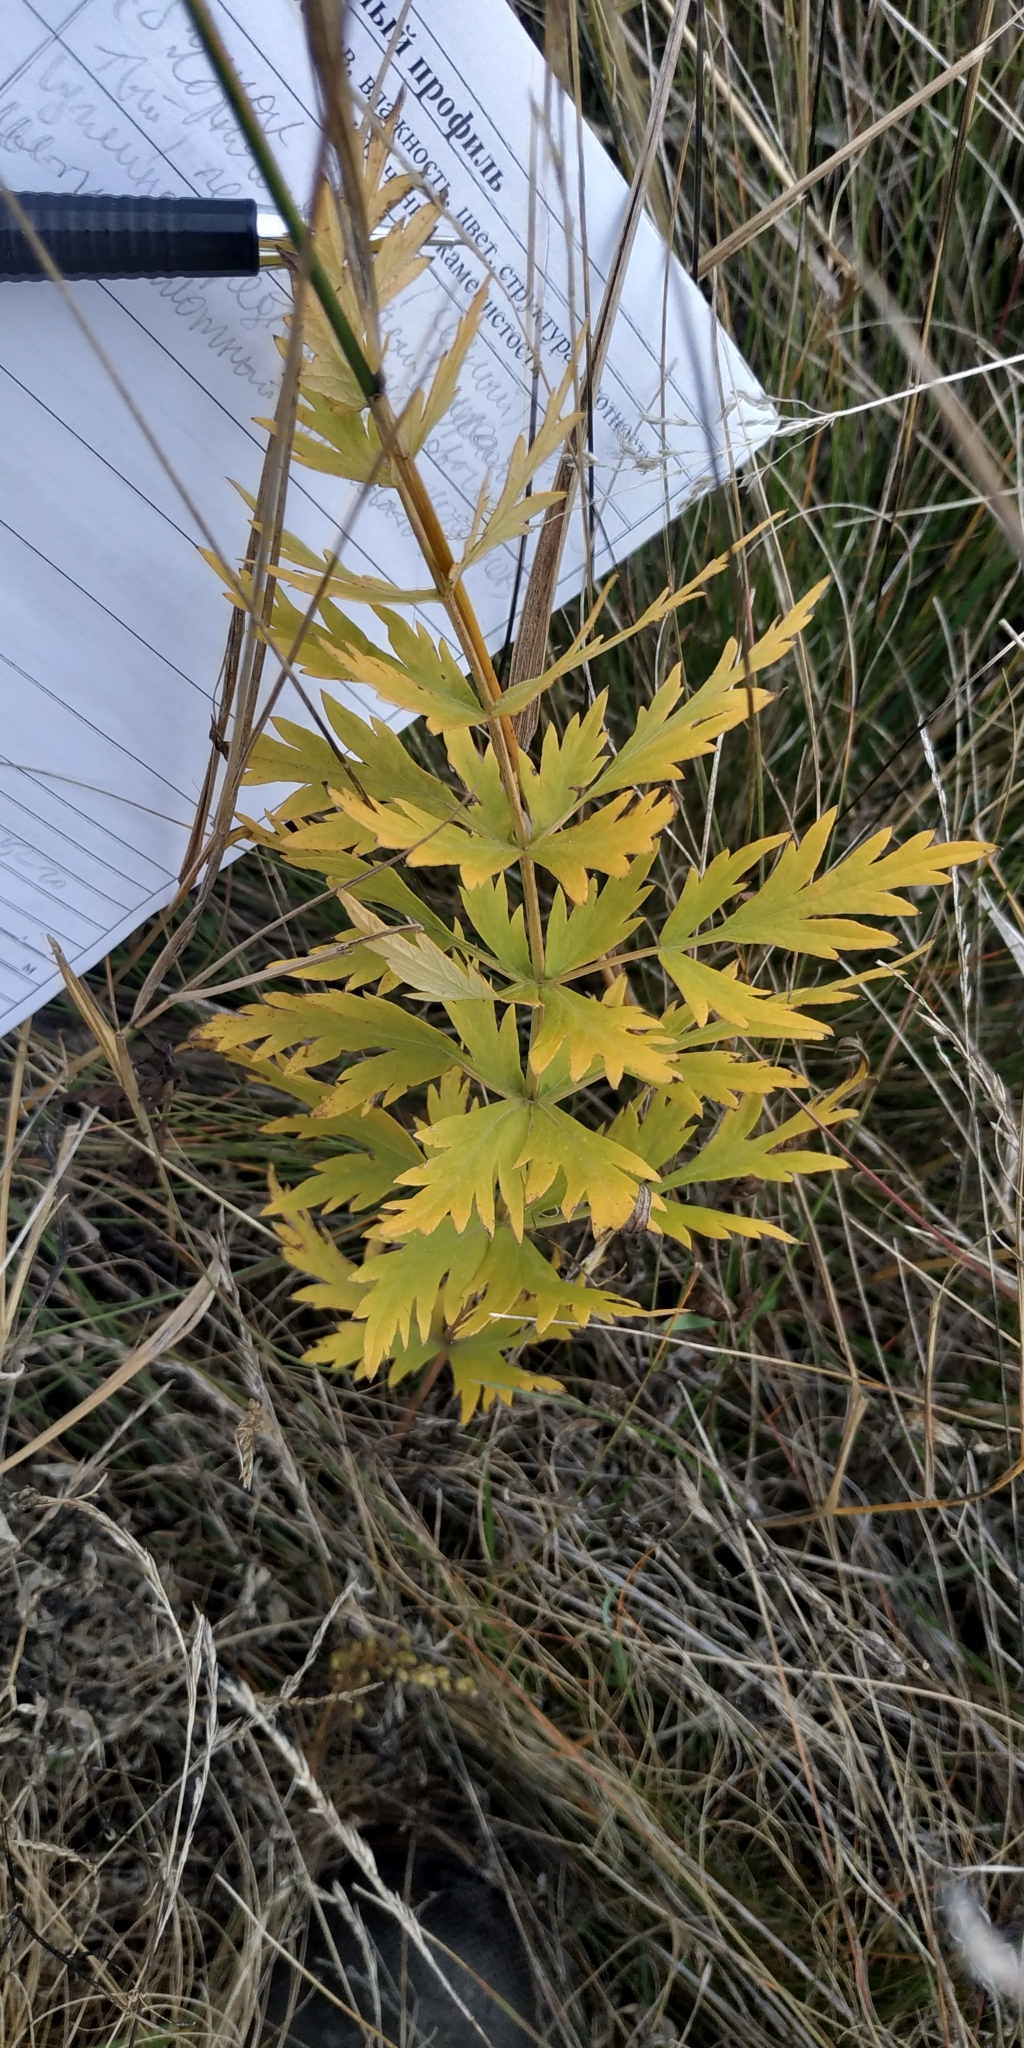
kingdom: Plantae
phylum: Tracheophyta
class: Magnoliopsida
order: Apiales
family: Apiaceae
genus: Seseli
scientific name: Seseli libanotis
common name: Mooncarrot
